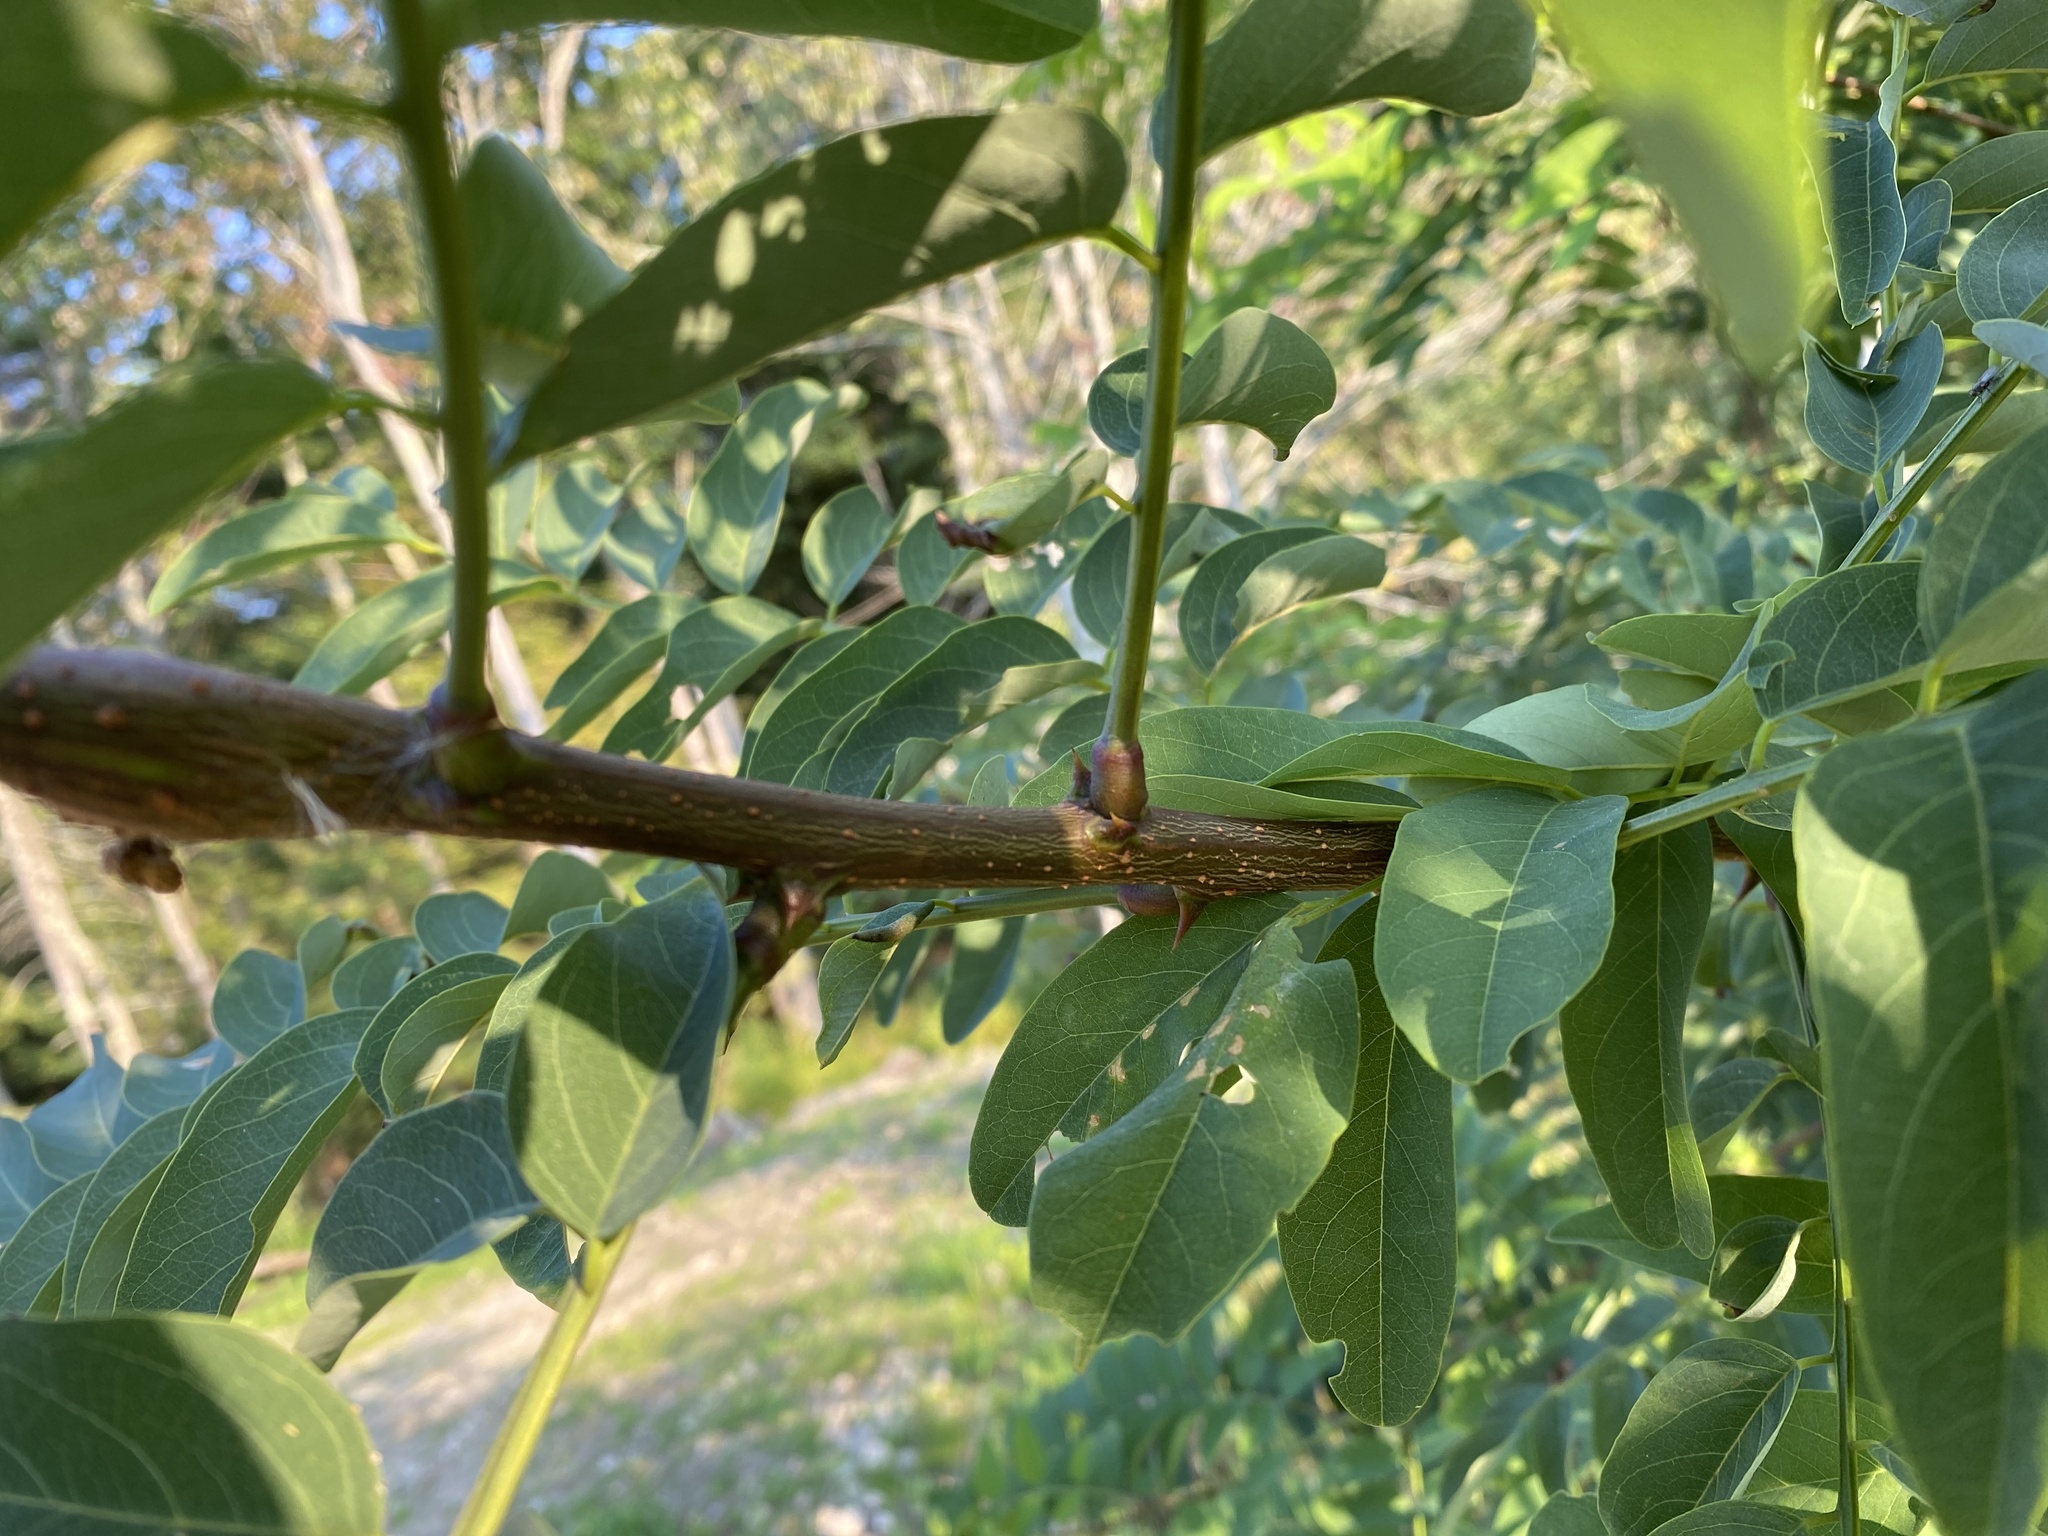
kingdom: Plantae
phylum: Tracheophyta
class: Magnoliopsida
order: Fabales
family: Fabaceae
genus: Robinia
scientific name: Robinia pseudoacacia
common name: Black locust
